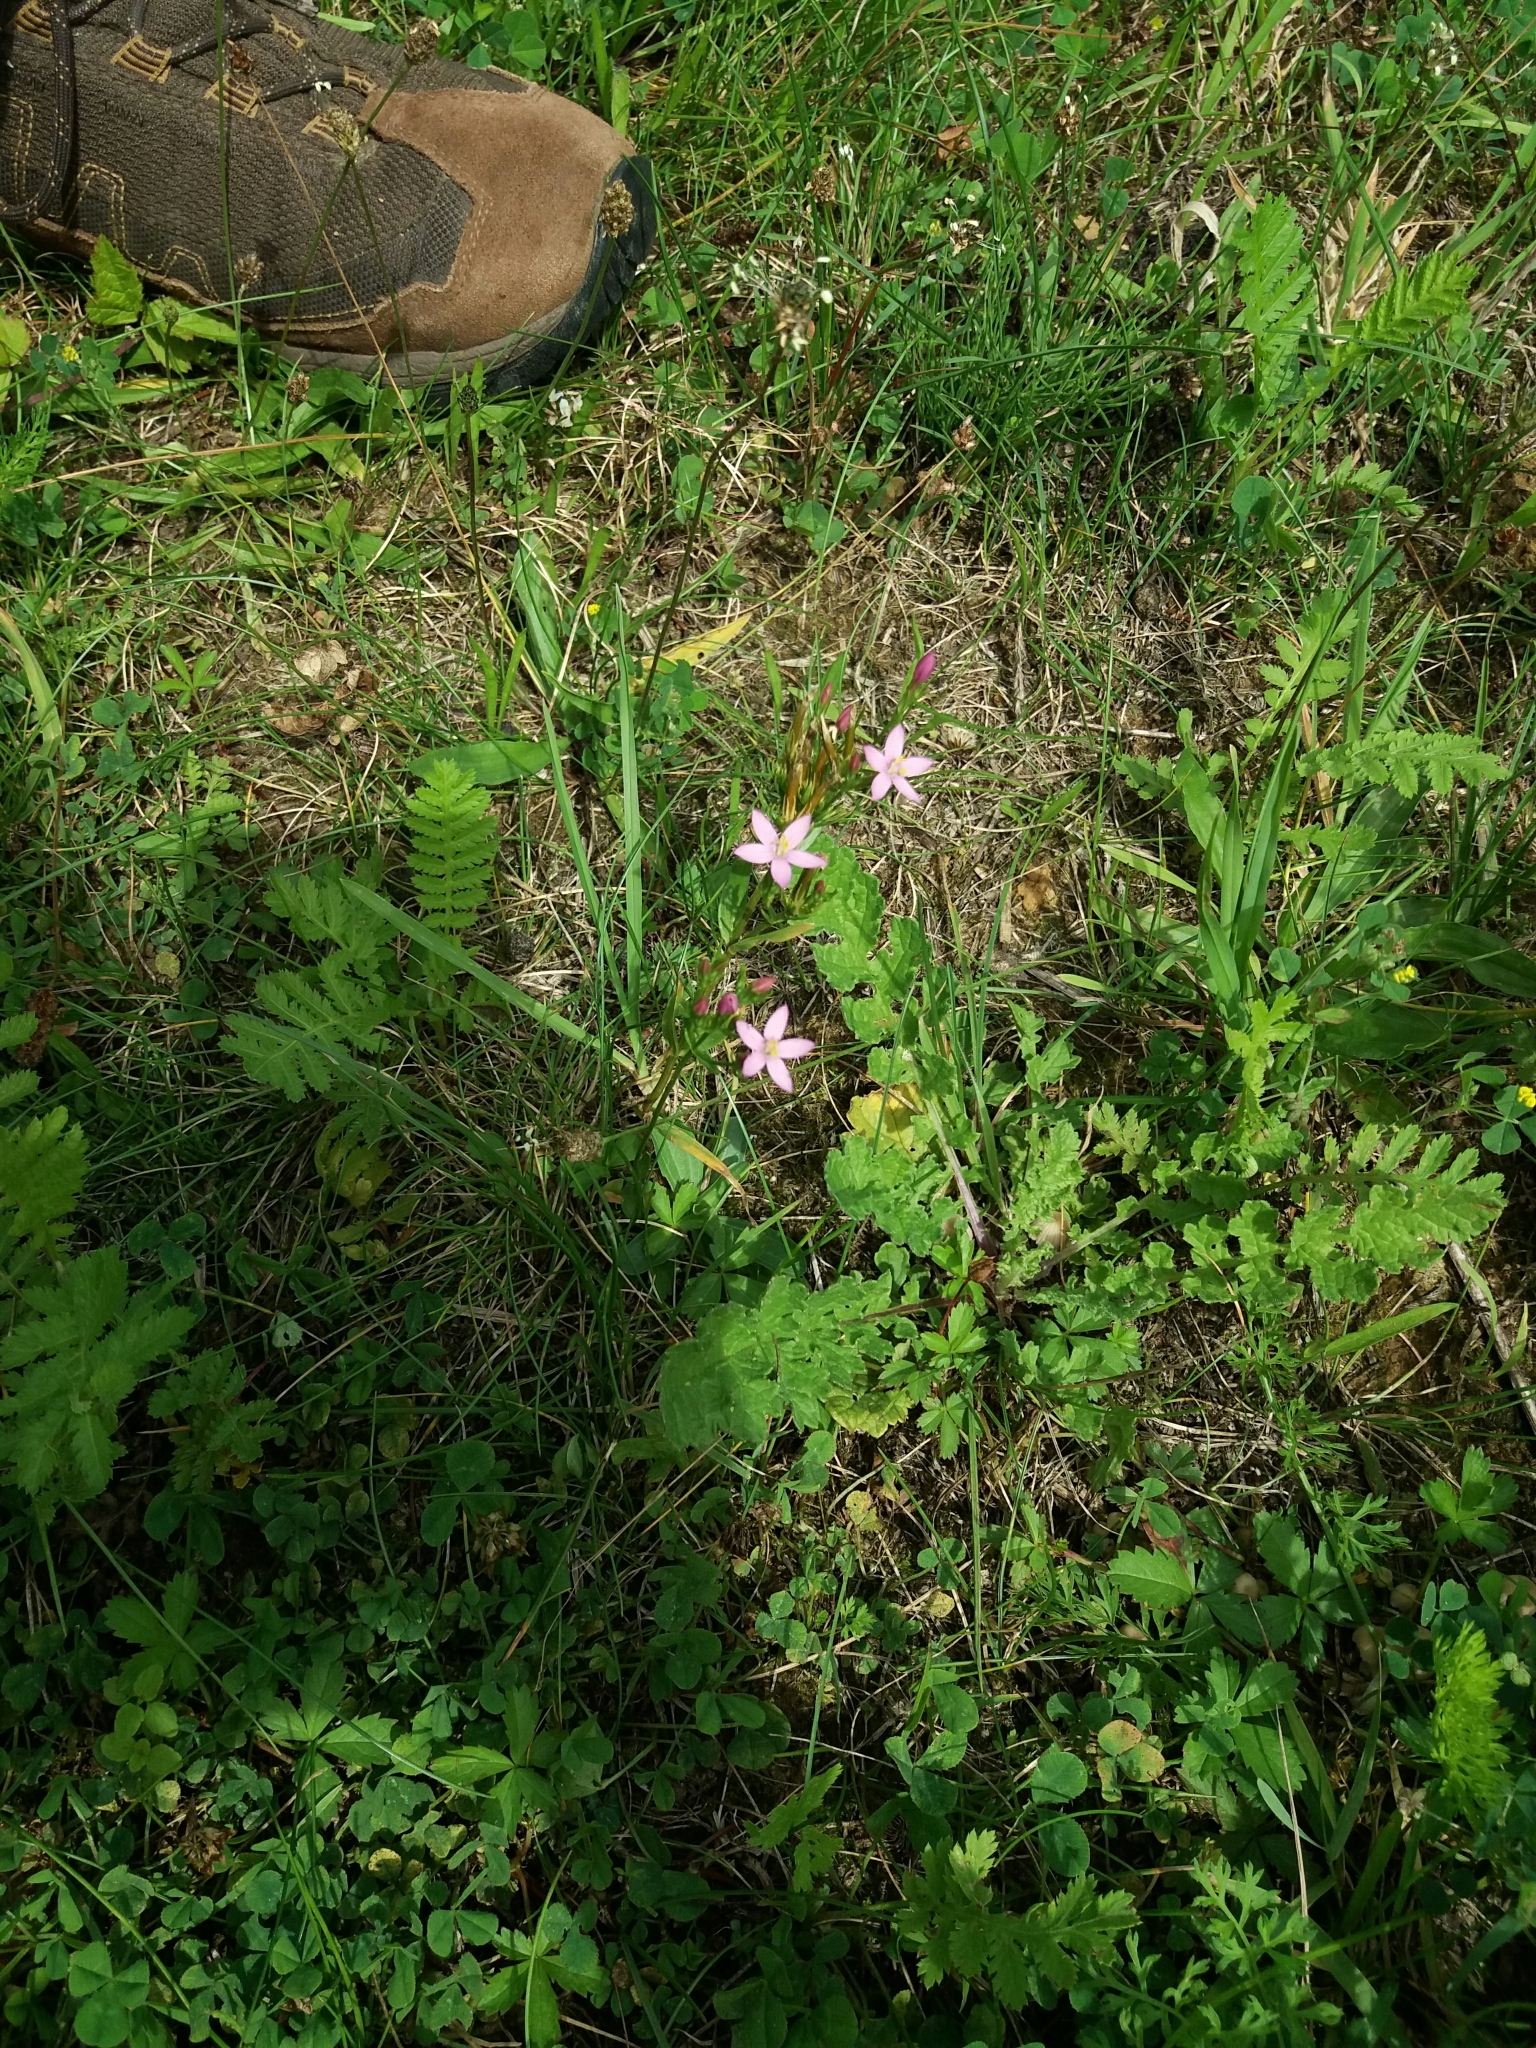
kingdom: Plantae
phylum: Tracheophyta
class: Magnoliopsida
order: Gentianales
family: Gentianaceae
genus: Centaurium
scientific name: Centaurium erythraea
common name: Common centaury
